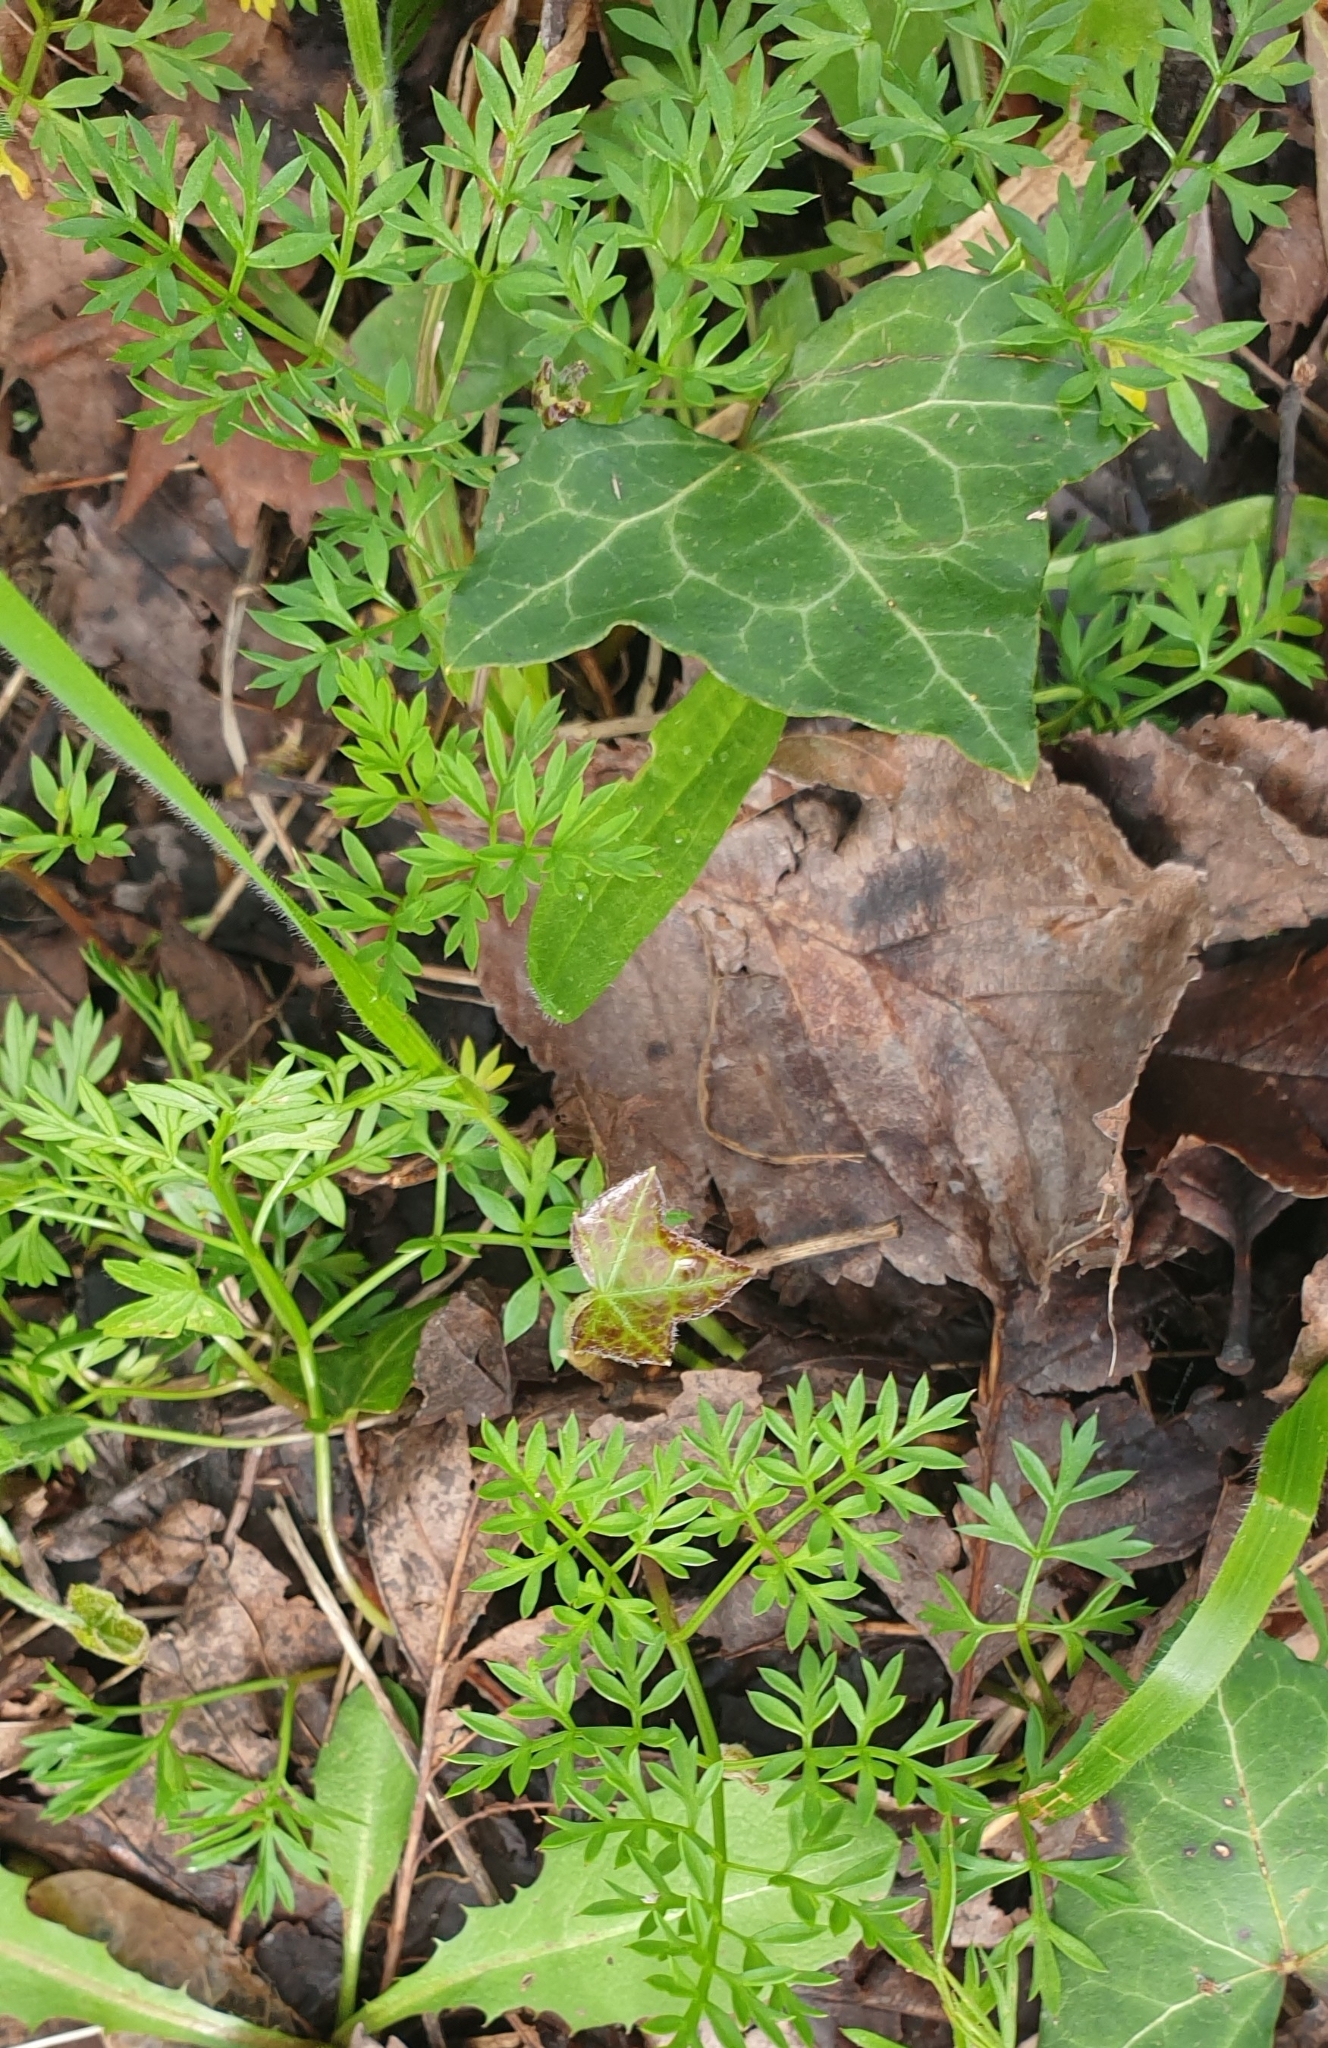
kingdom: Plantae
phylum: Tracheophyta
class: Magnoliopsida
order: Apiales
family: Apiaceae
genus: Conopodium
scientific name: Conopodium majus
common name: Pignut
